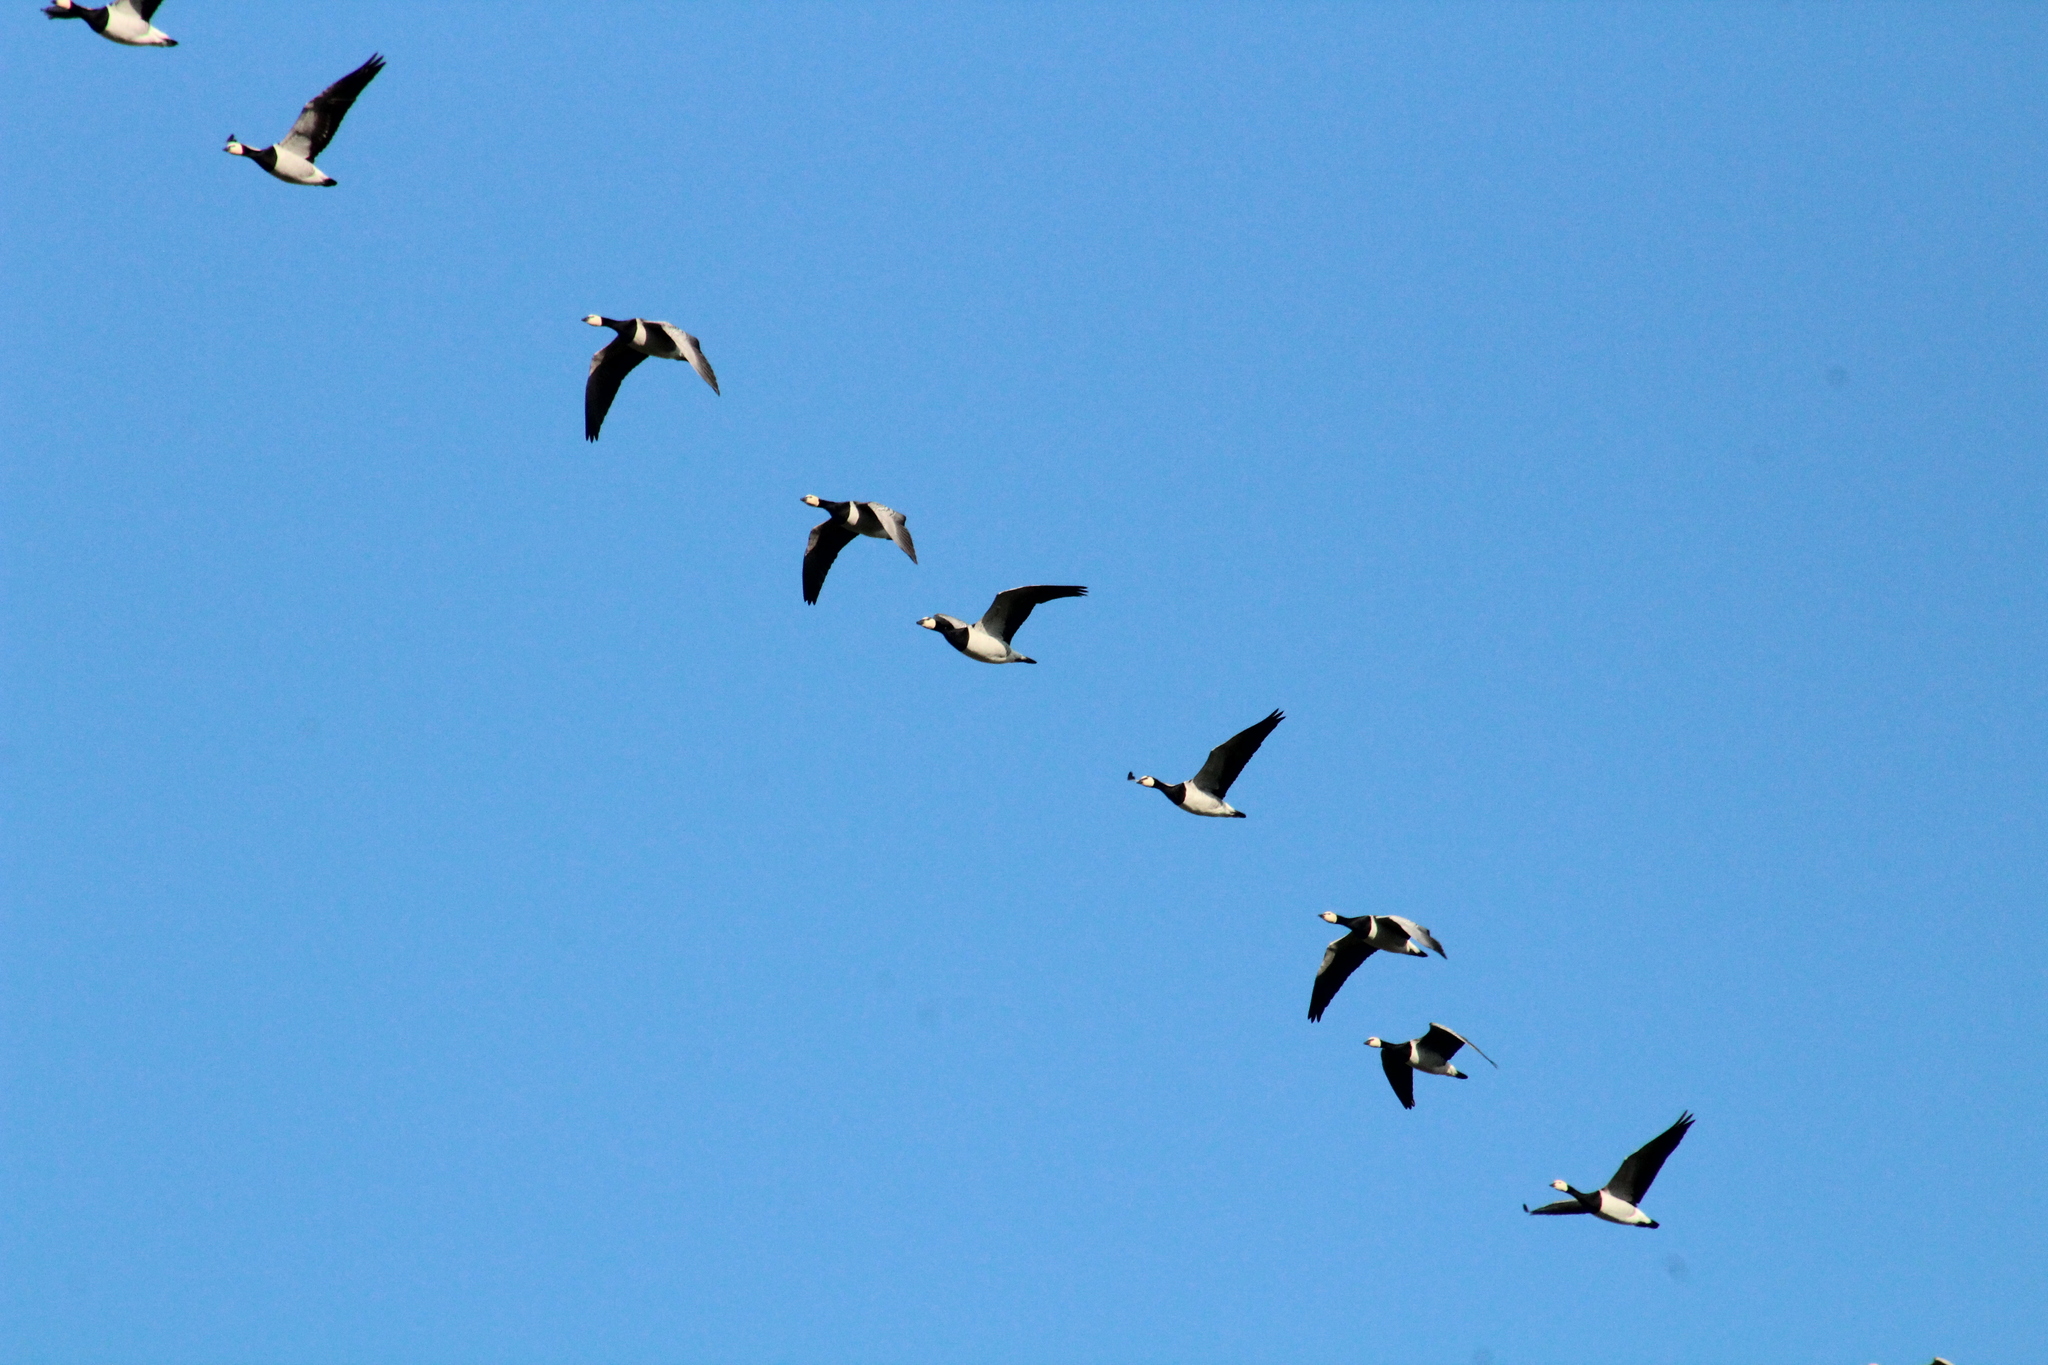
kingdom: Animalia
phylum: Chordata
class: Aves
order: Anseriformes
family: Anatidae
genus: Branta
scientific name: Branta leucopsis
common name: Barnacle goose
